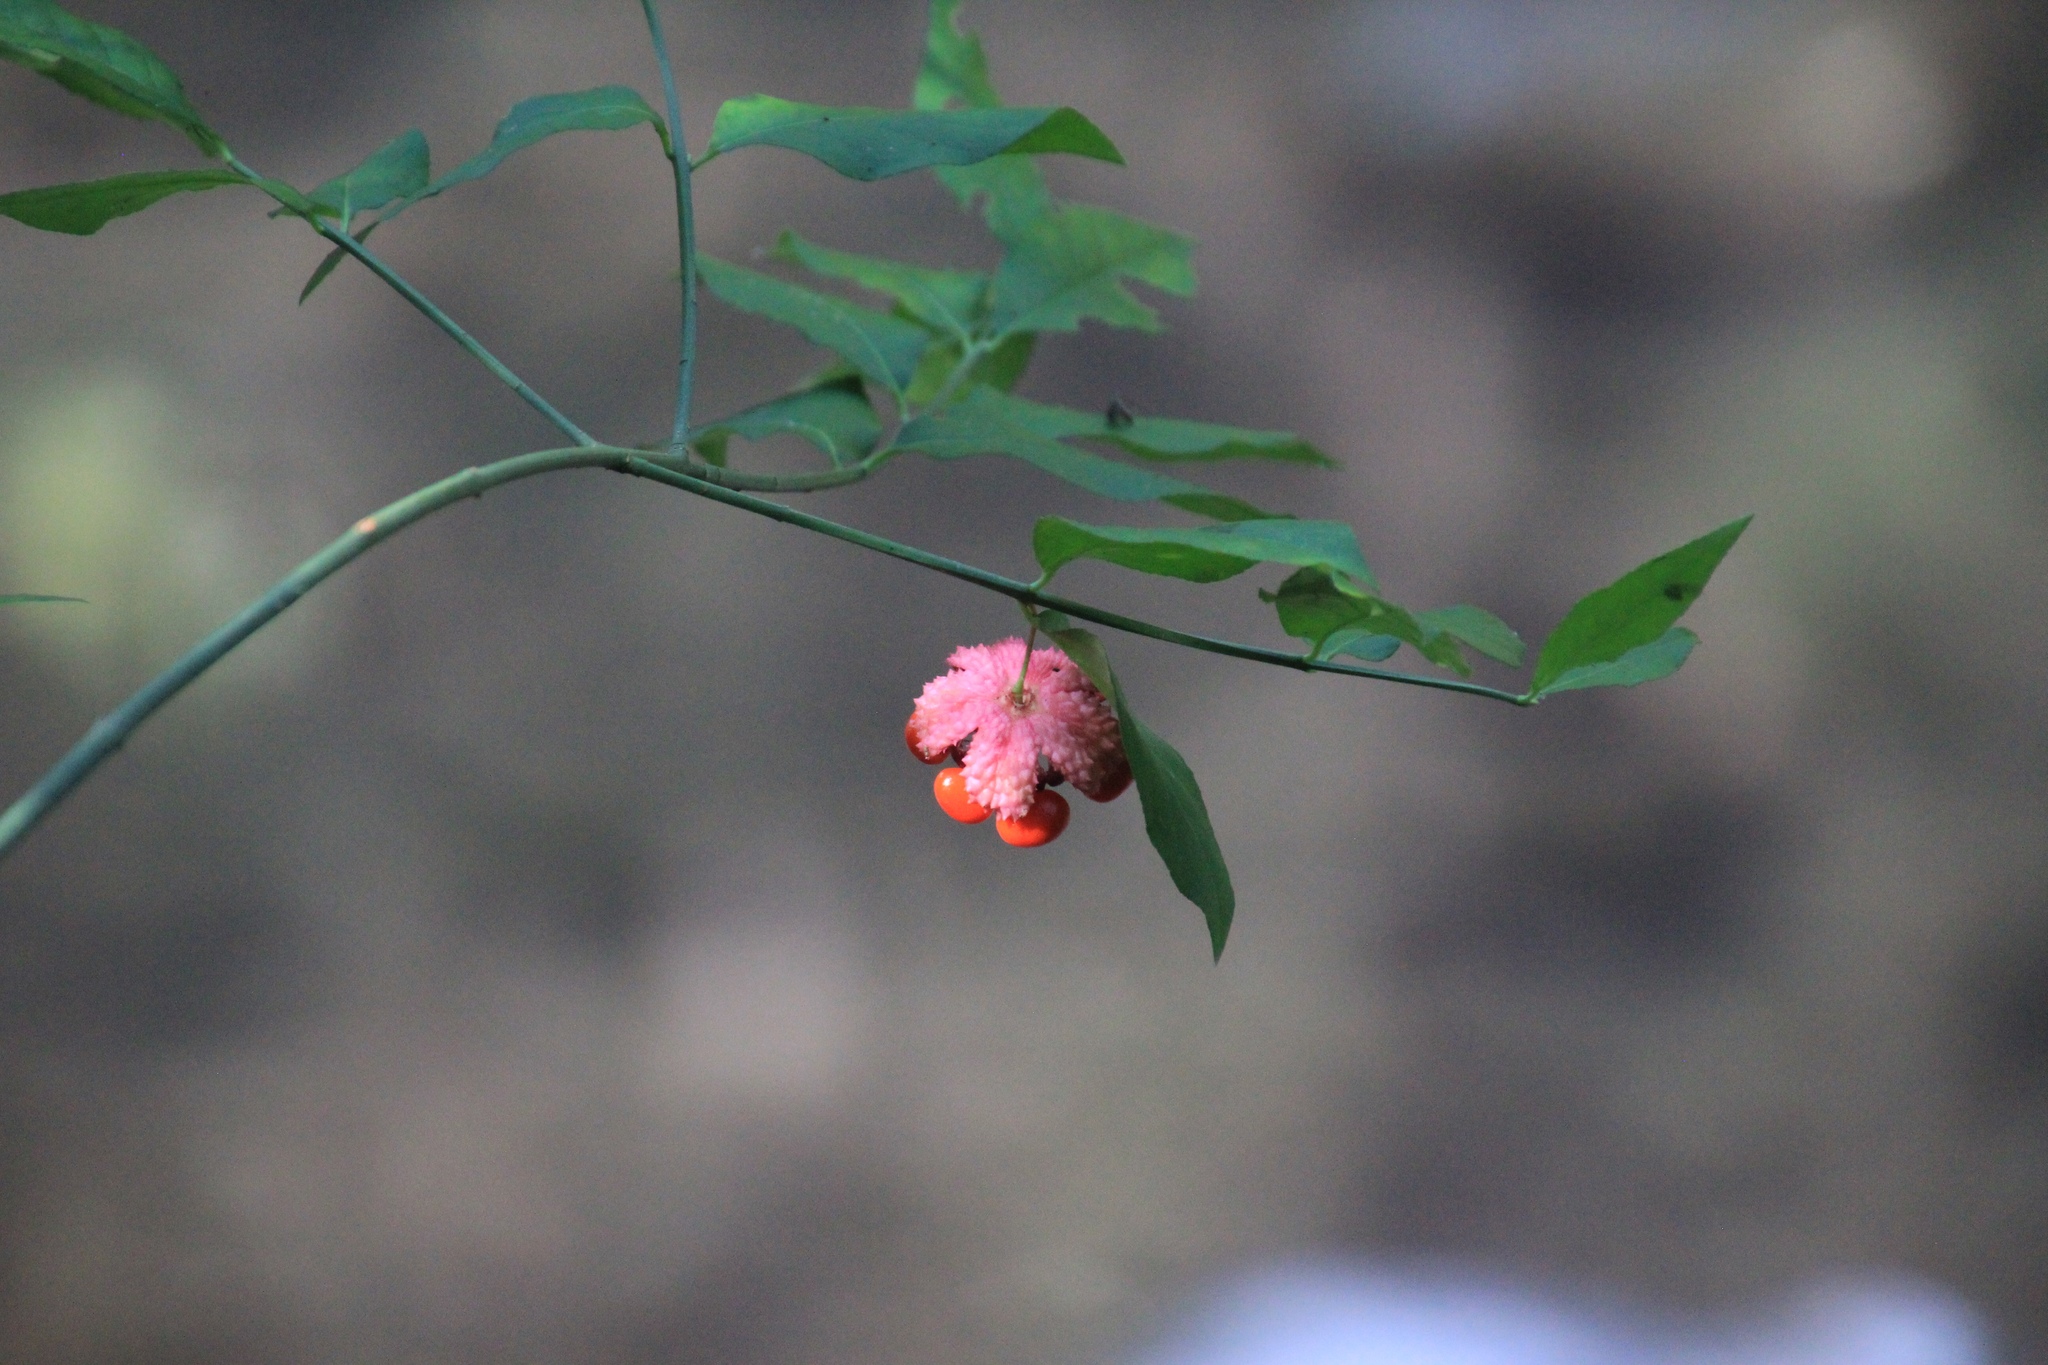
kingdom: Plantae
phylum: Tracheophyta
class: Magnoliopsida
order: Celastrales
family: Celastraceae
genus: Euonymus
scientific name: Euonymus americanus
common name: Bursting-heart
